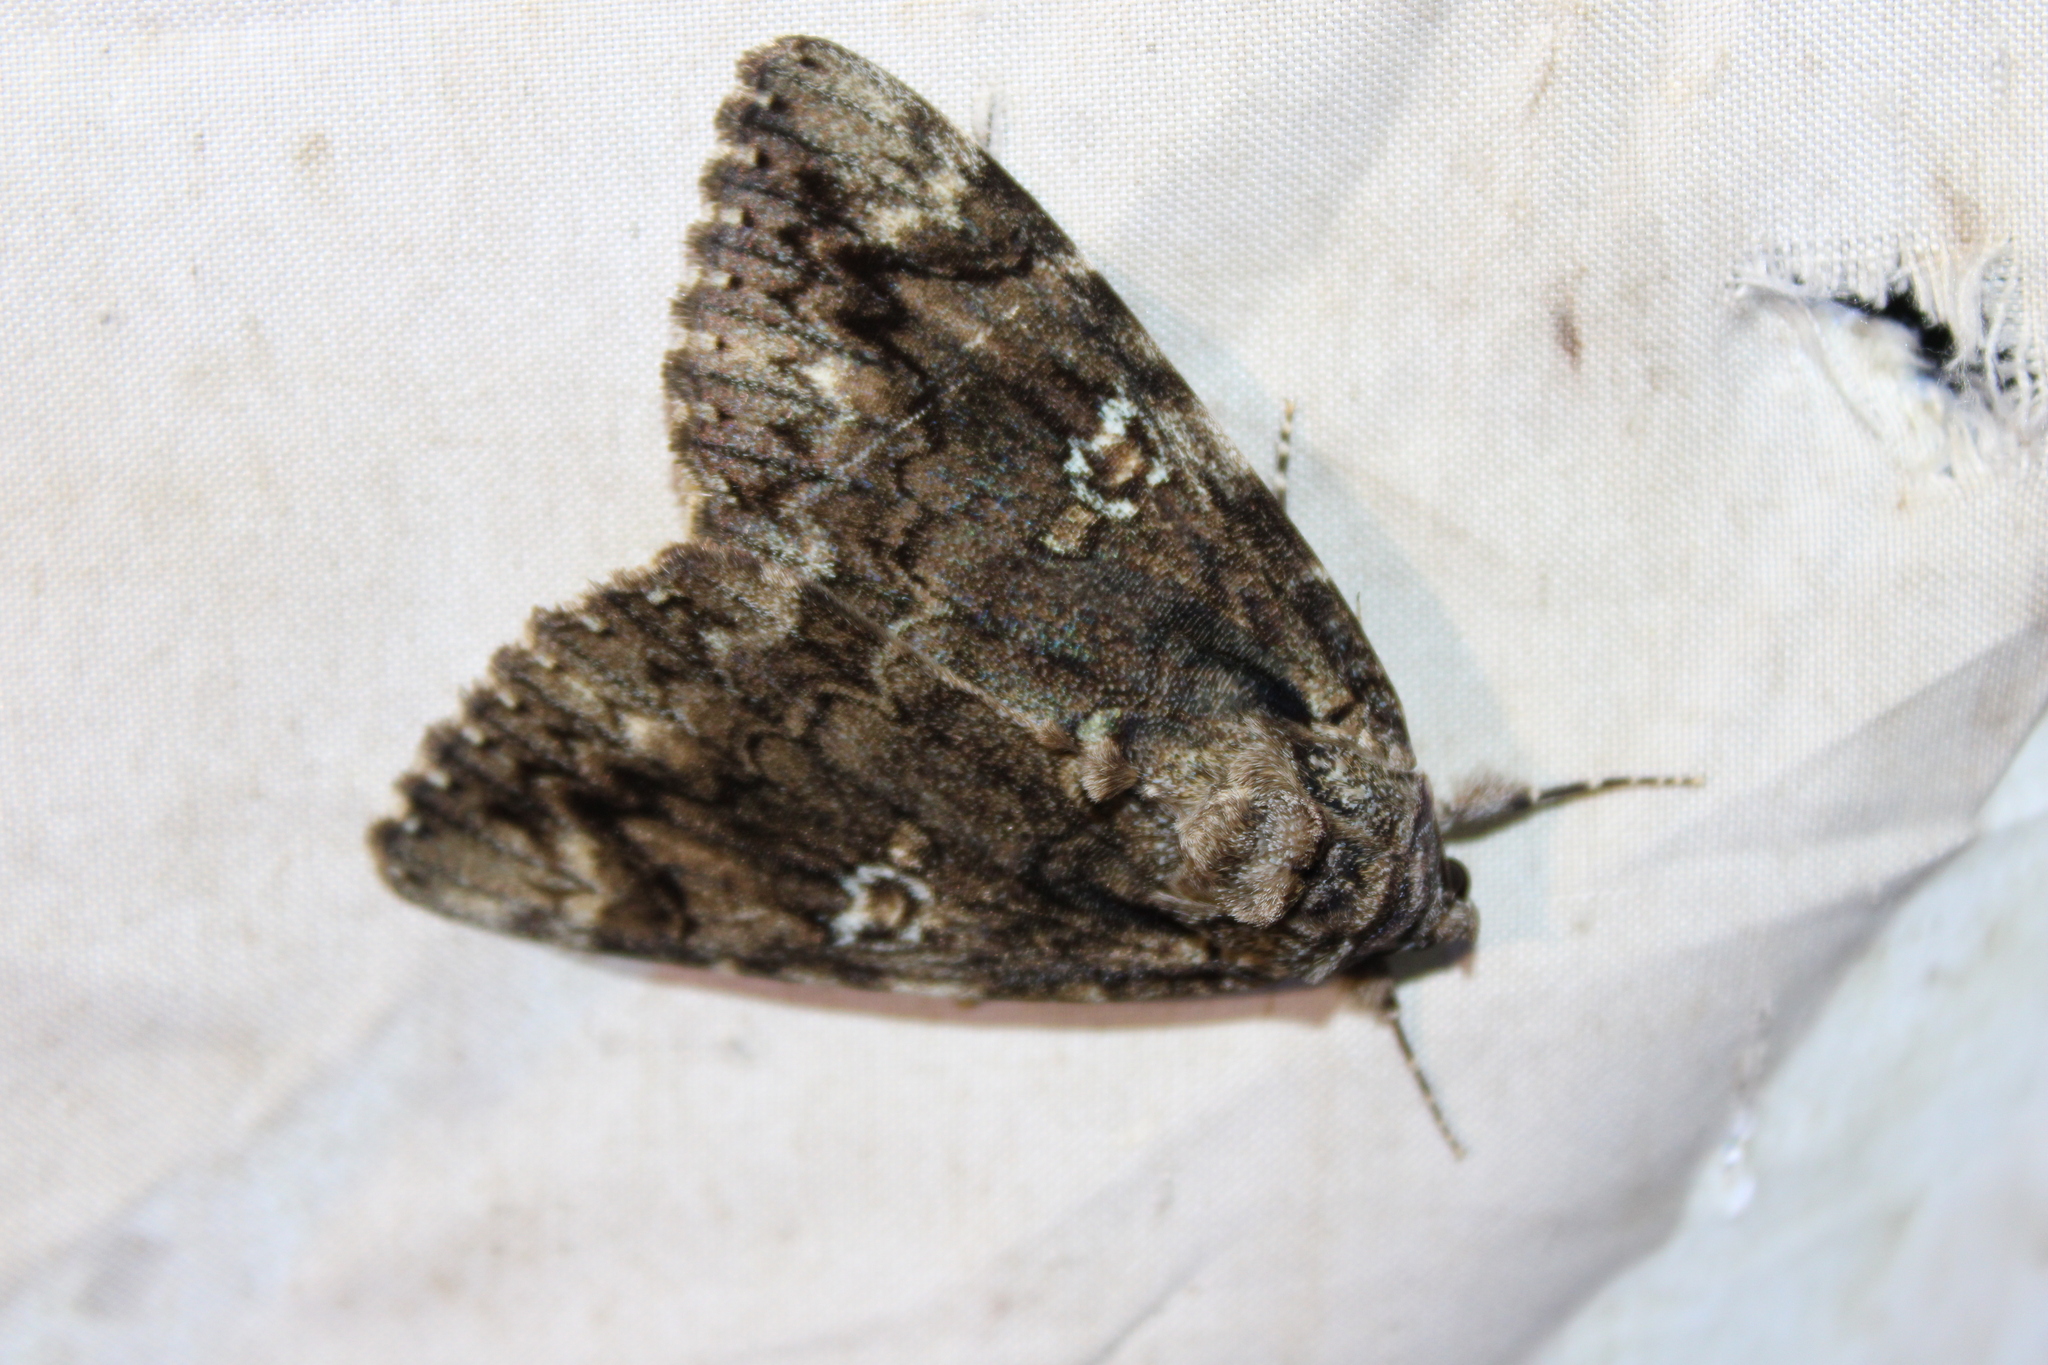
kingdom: Animalia
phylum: Arthropoda
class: Insecta
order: Lepidoptera
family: Erebidae
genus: Catocala
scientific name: Catocala ilia
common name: Ilia underwing
